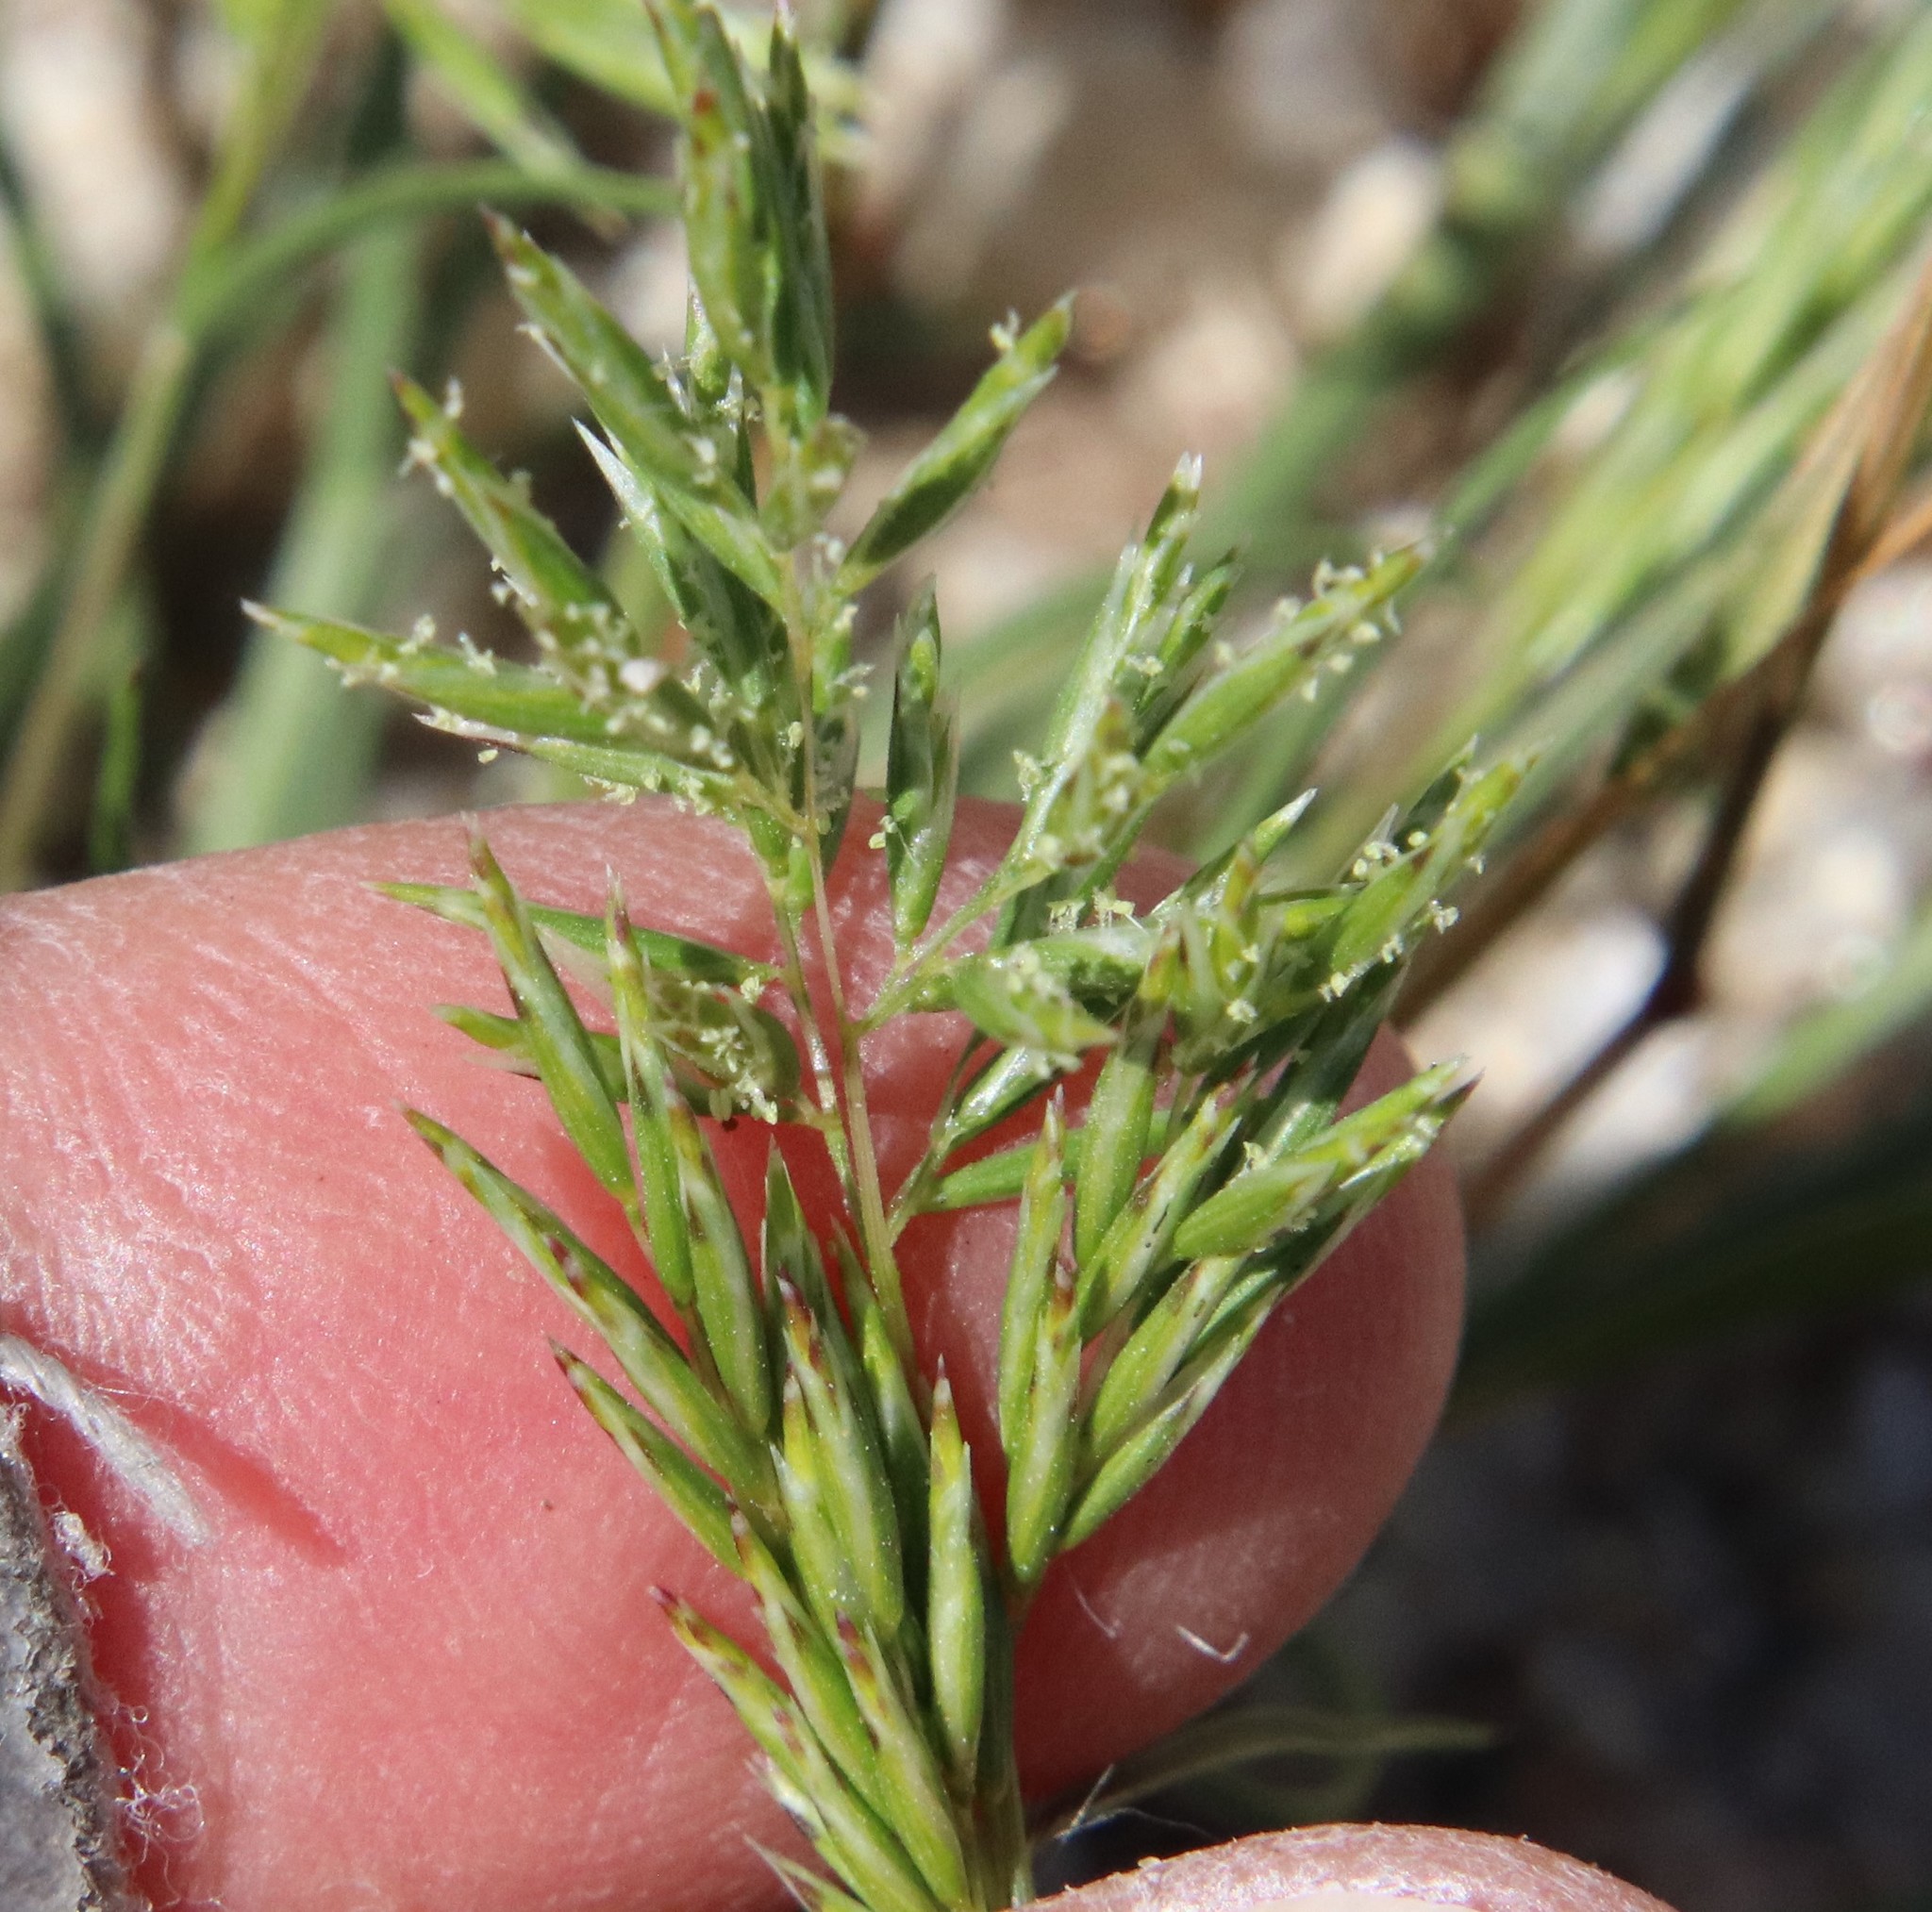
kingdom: Plantae
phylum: Tracheophyta
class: Liliopsida
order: Poales
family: Poaceae
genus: Schismus
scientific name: Schismus barbatus
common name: Kelch-grass
